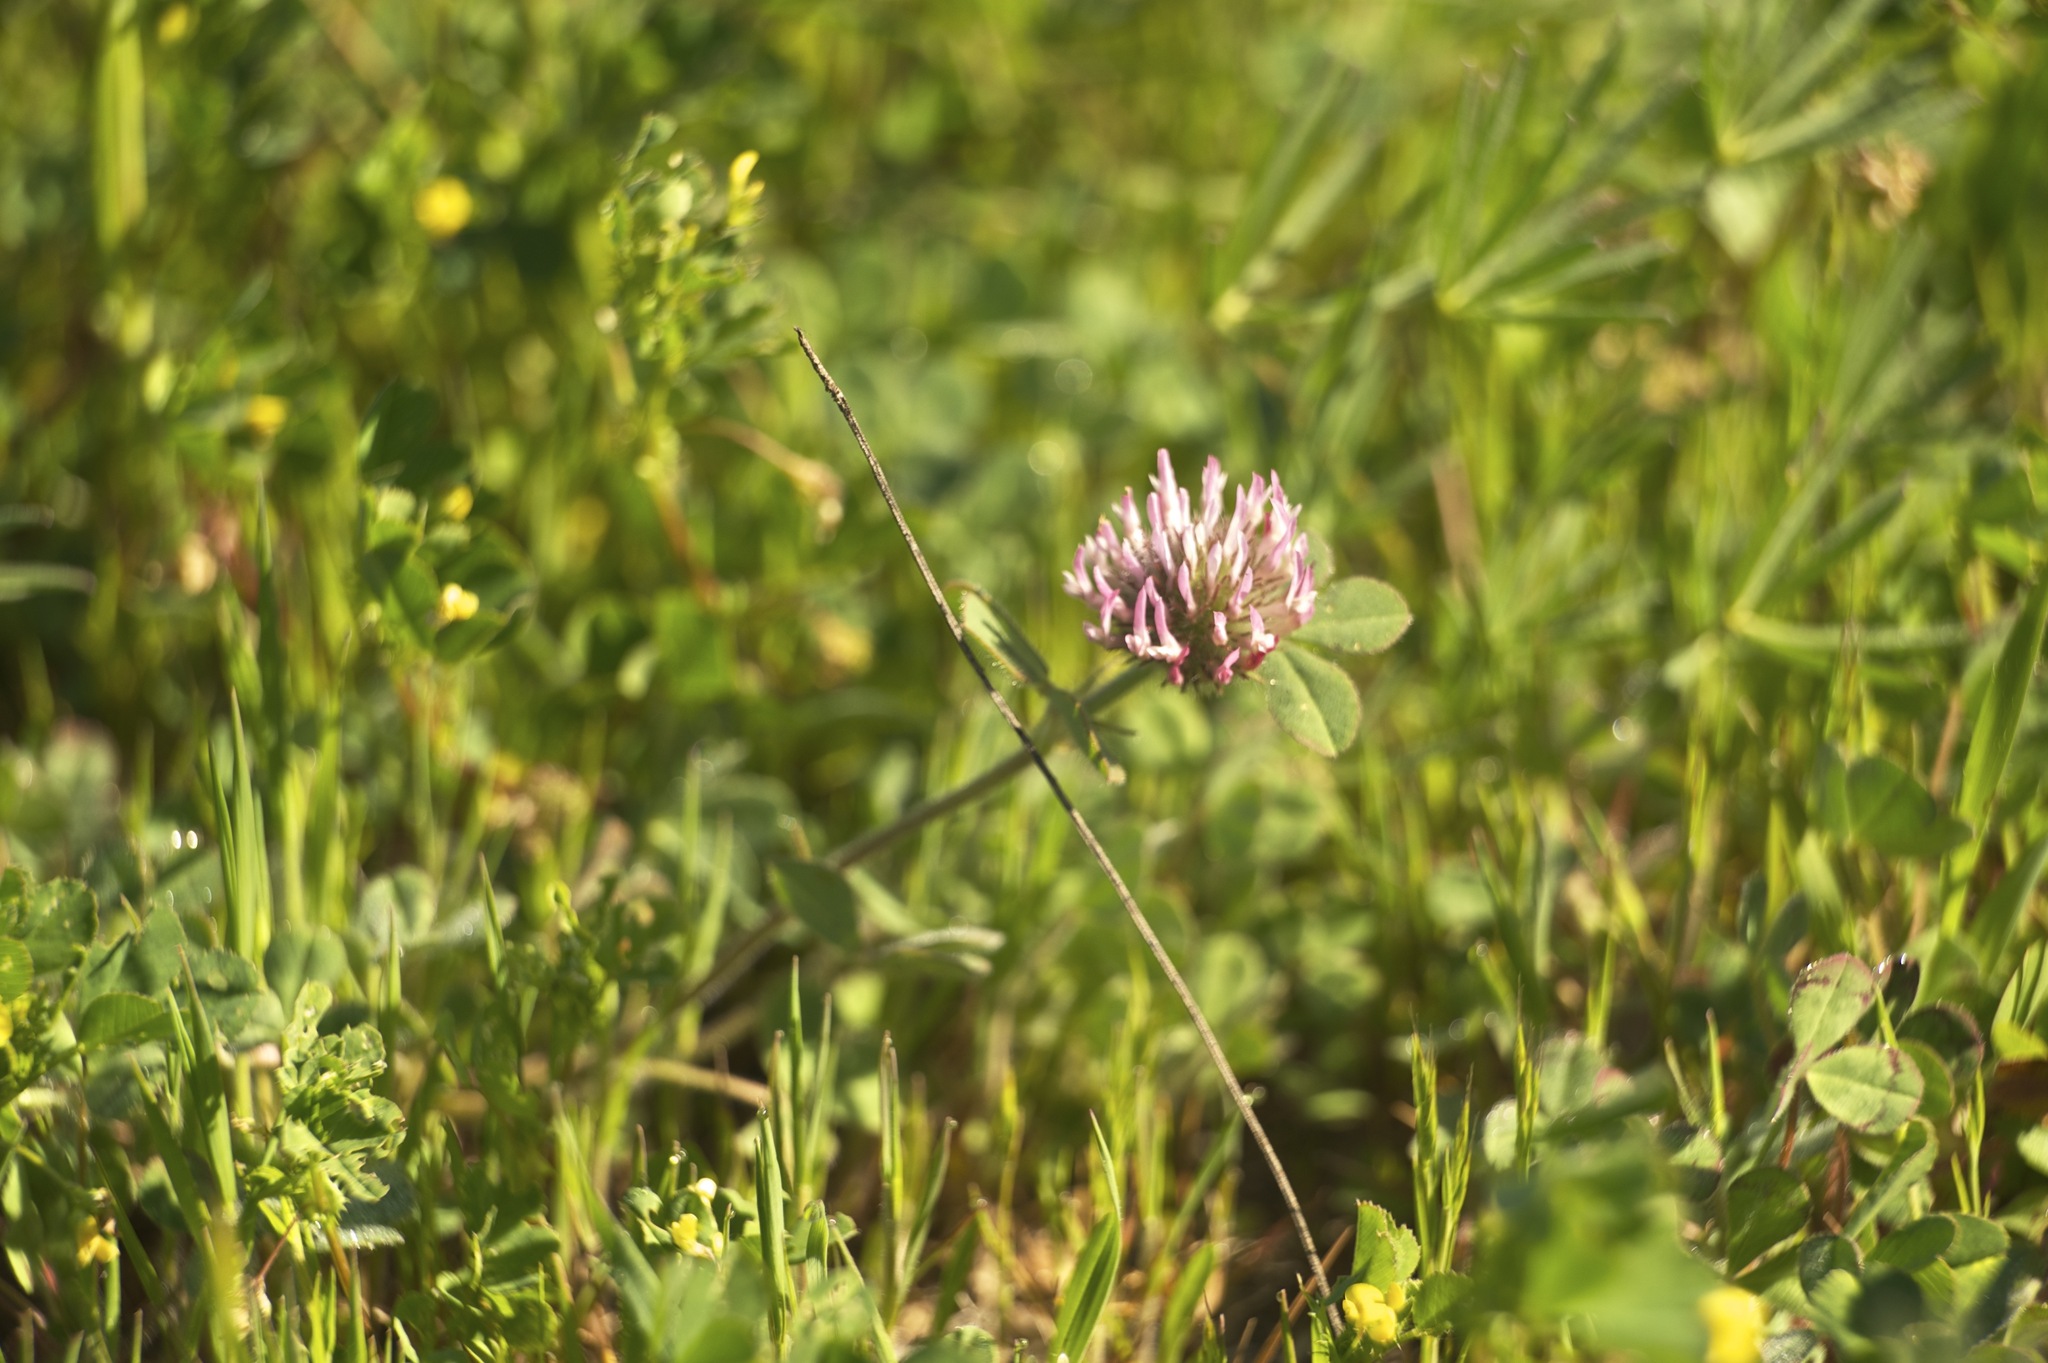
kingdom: Plantae
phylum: Tracheophyta
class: Magnoliopsida
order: Fabales
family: Fabaceae
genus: Trifolium
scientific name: Trifolium hirtum
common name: Rose clover
